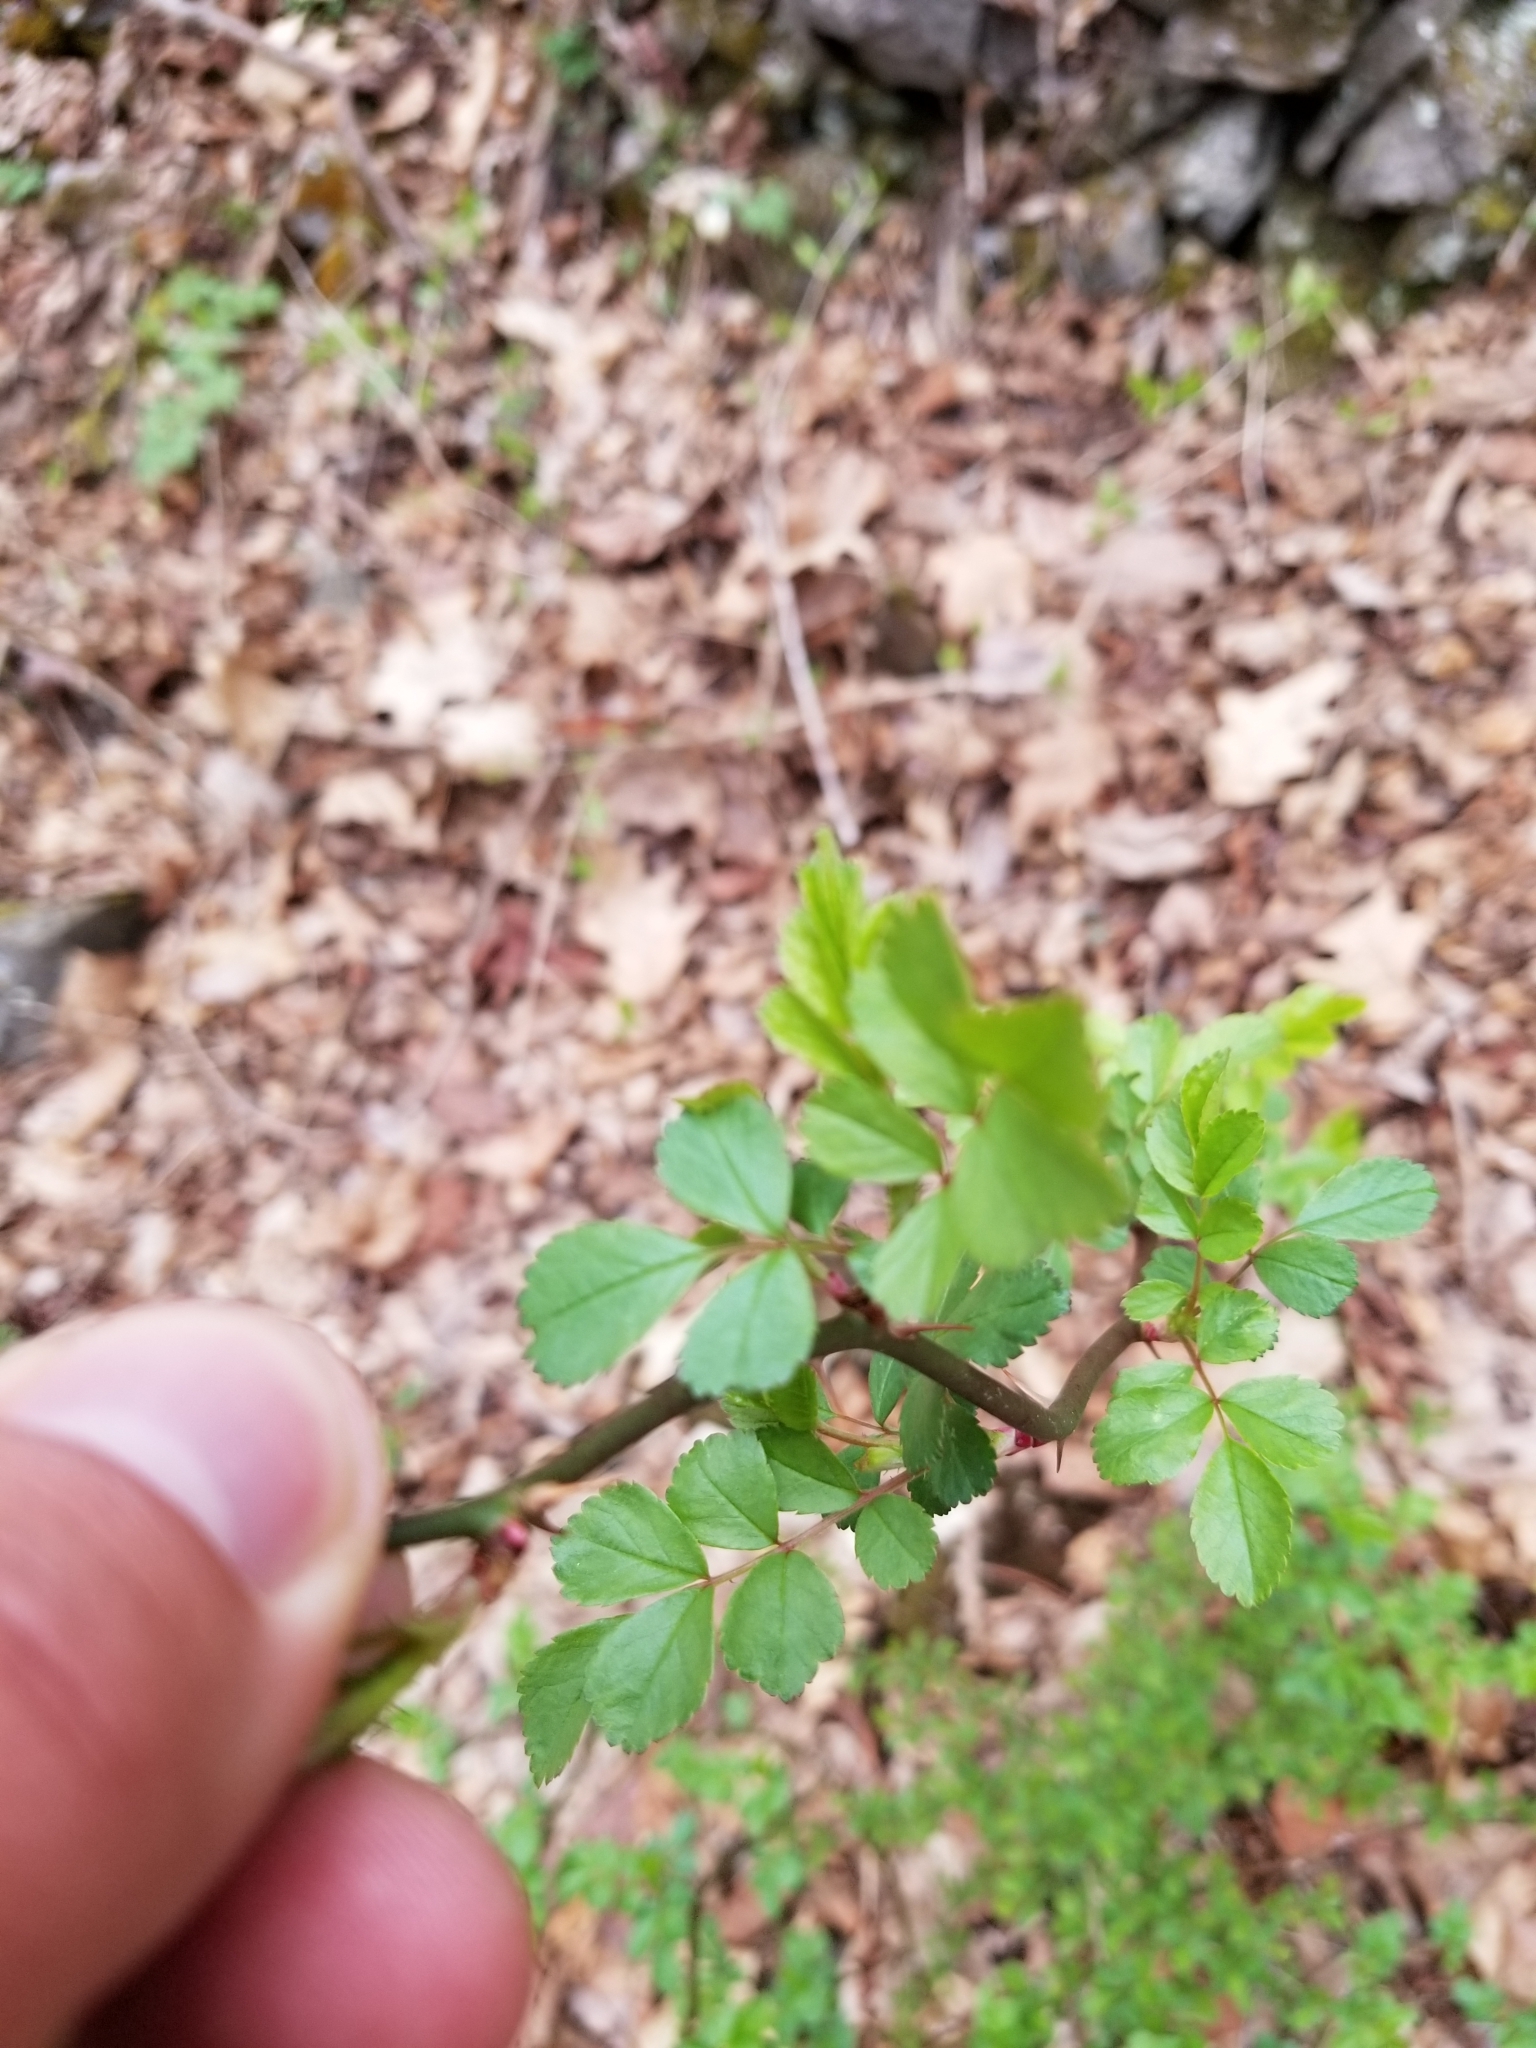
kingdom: Plantae
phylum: Tracheophyta
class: Magnoliopsida
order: Rosales
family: Rosaceae
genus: Rosa
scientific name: Rosa multiflora
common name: Multiflora rose
